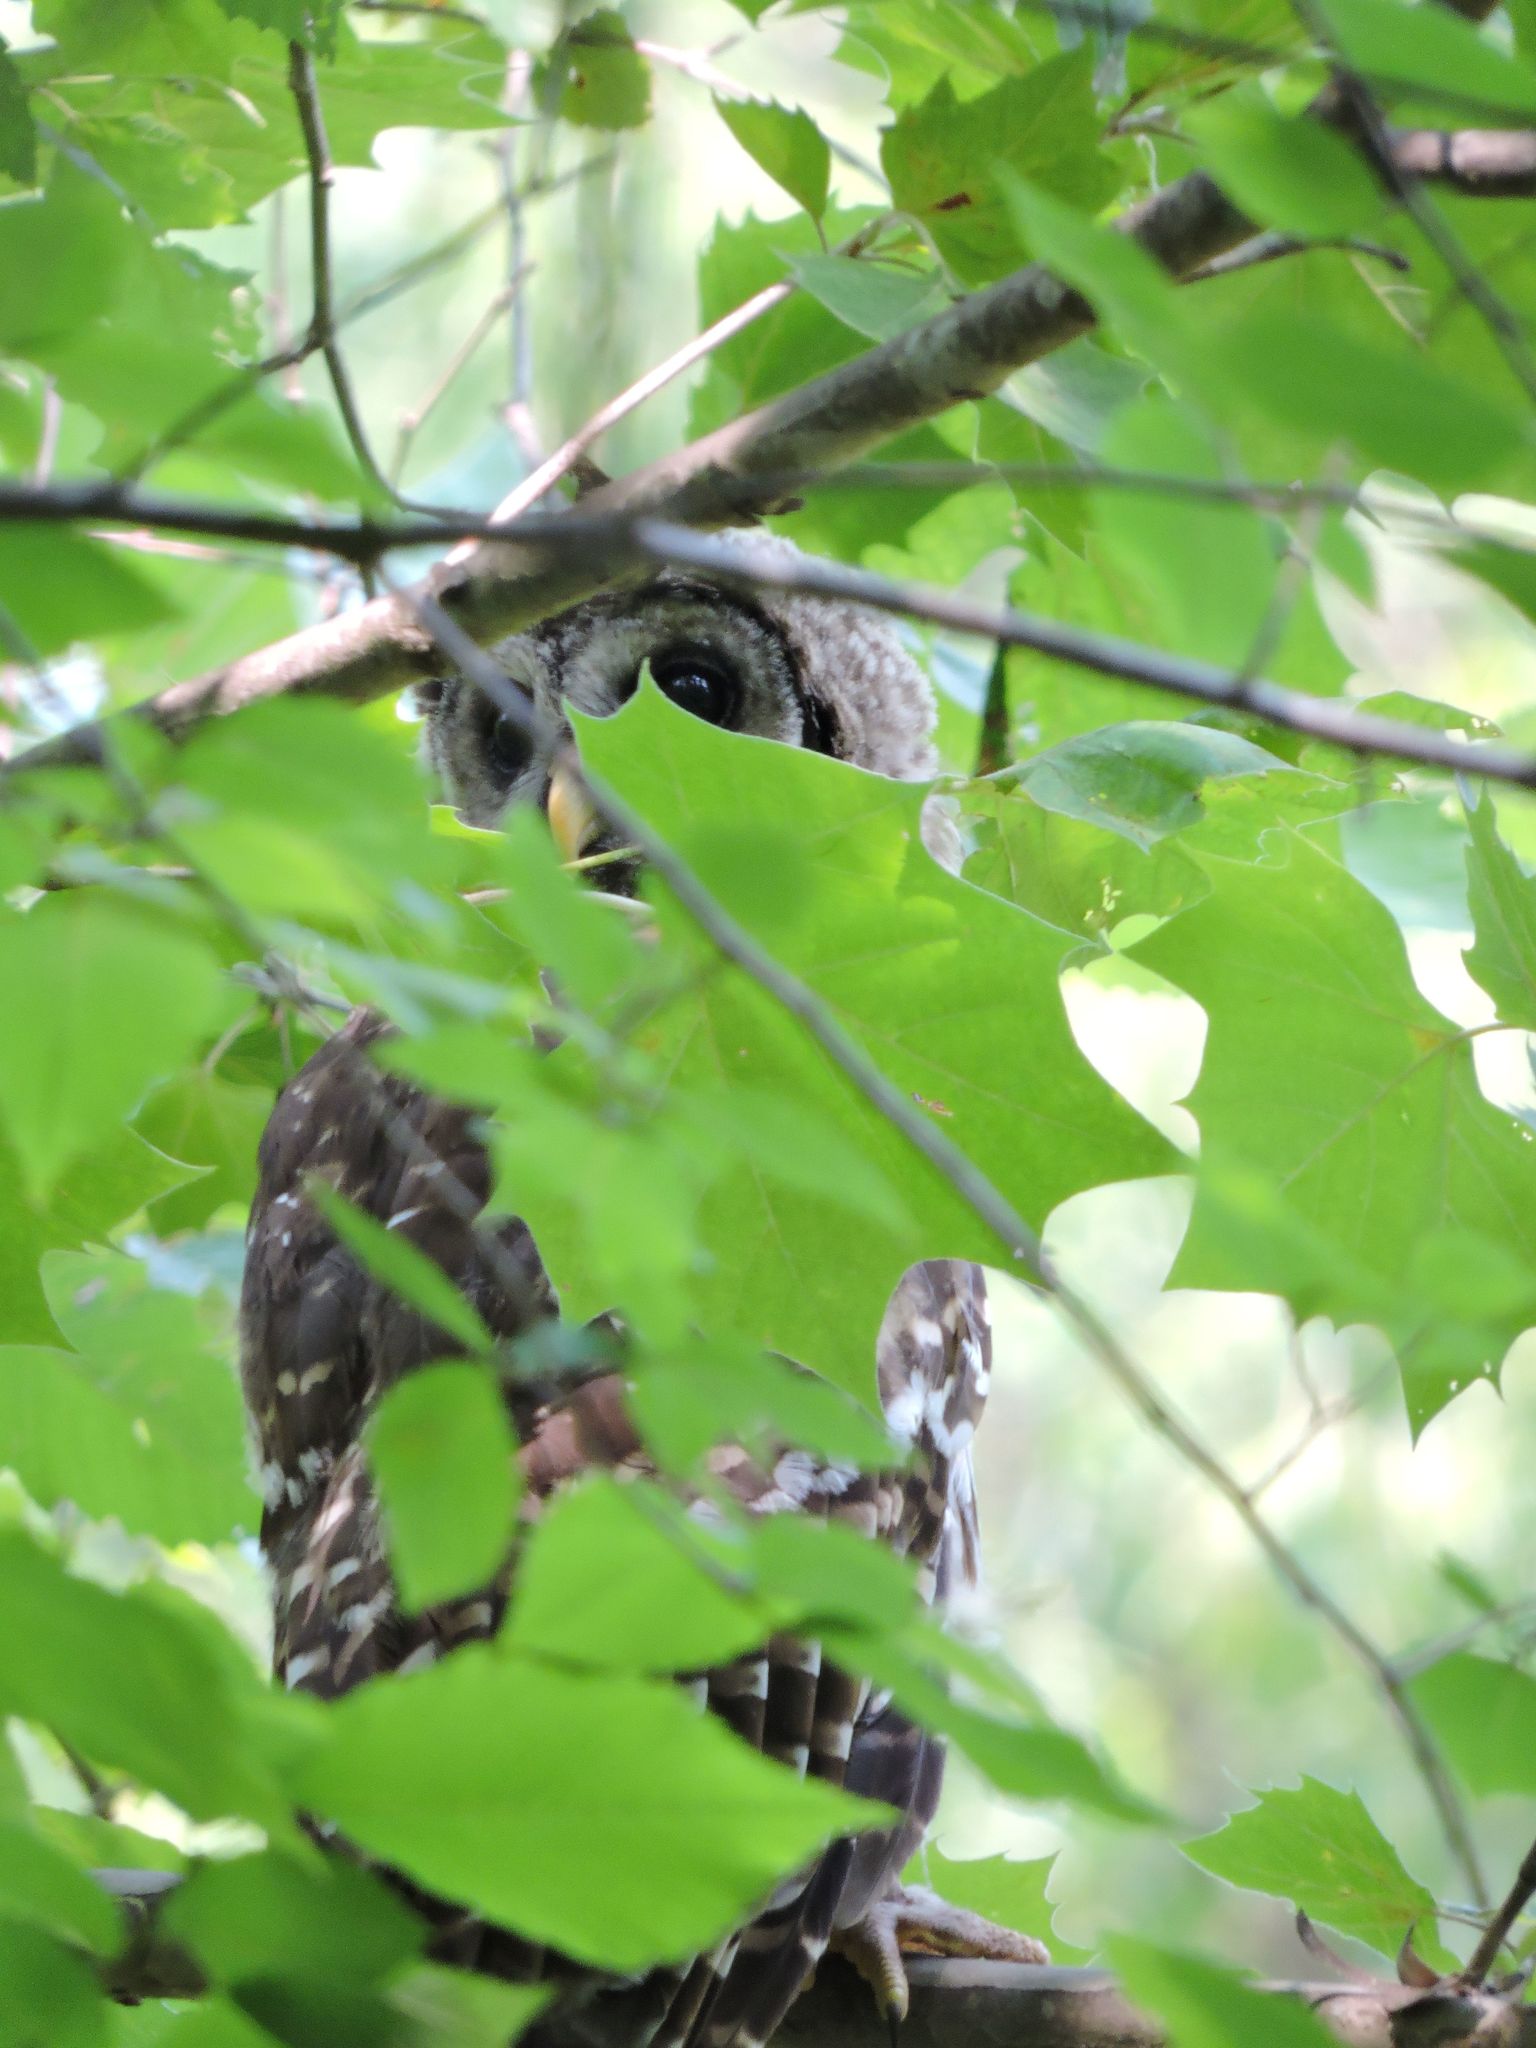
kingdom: Animalia
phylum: Chordata
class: Aves
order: Strigiformes
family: Strigidae
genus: Strix
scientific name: Strix varia
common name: Barred owl
